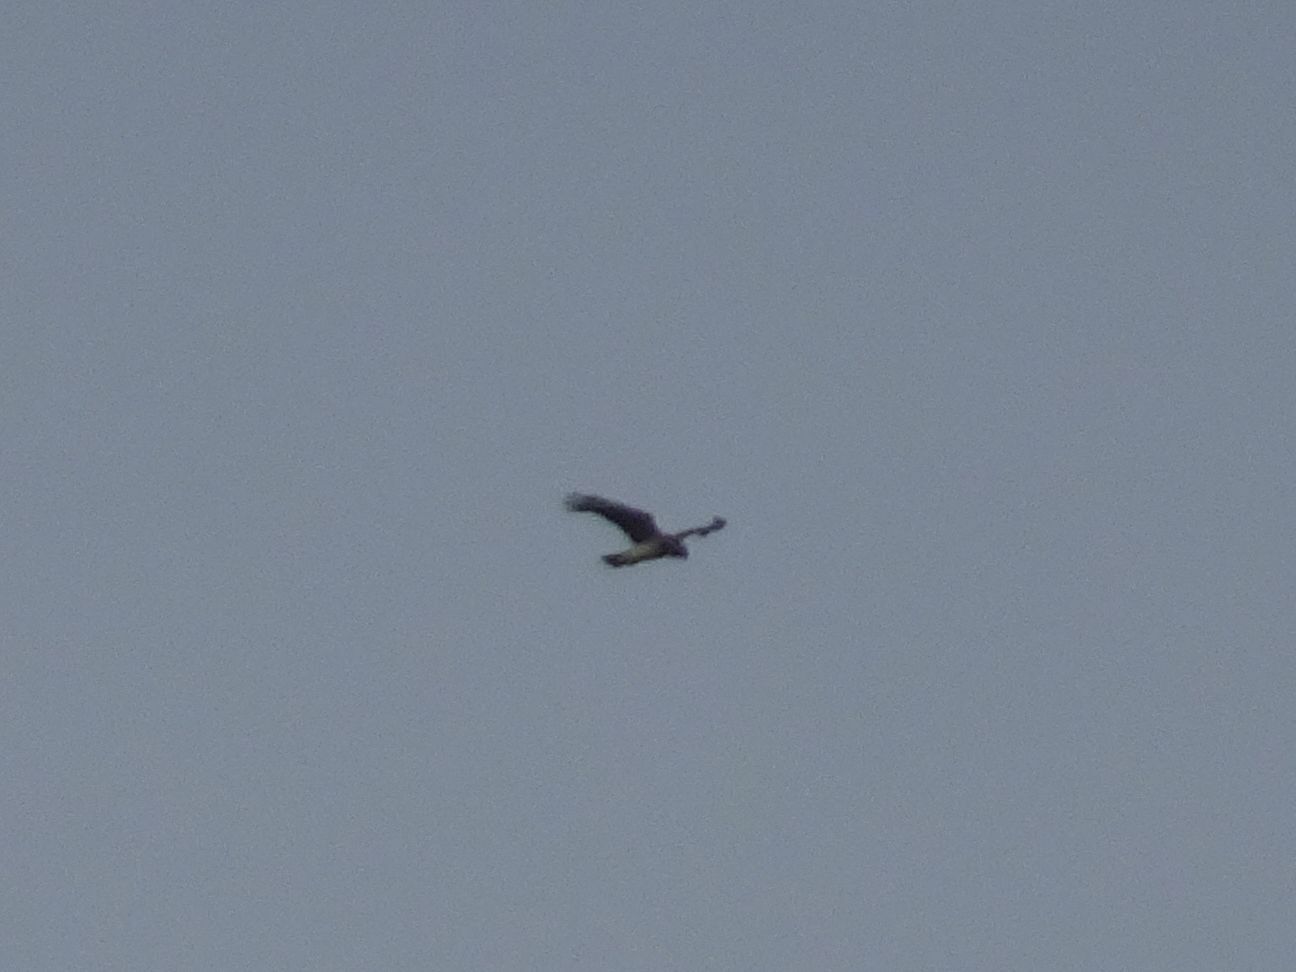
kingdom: Animalia
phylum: Chordata
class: Aves
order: Accipitriformes
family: Accipitridae
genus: Circaetus
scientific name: Circaetus gallicus
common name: Short-toed snake eagle
